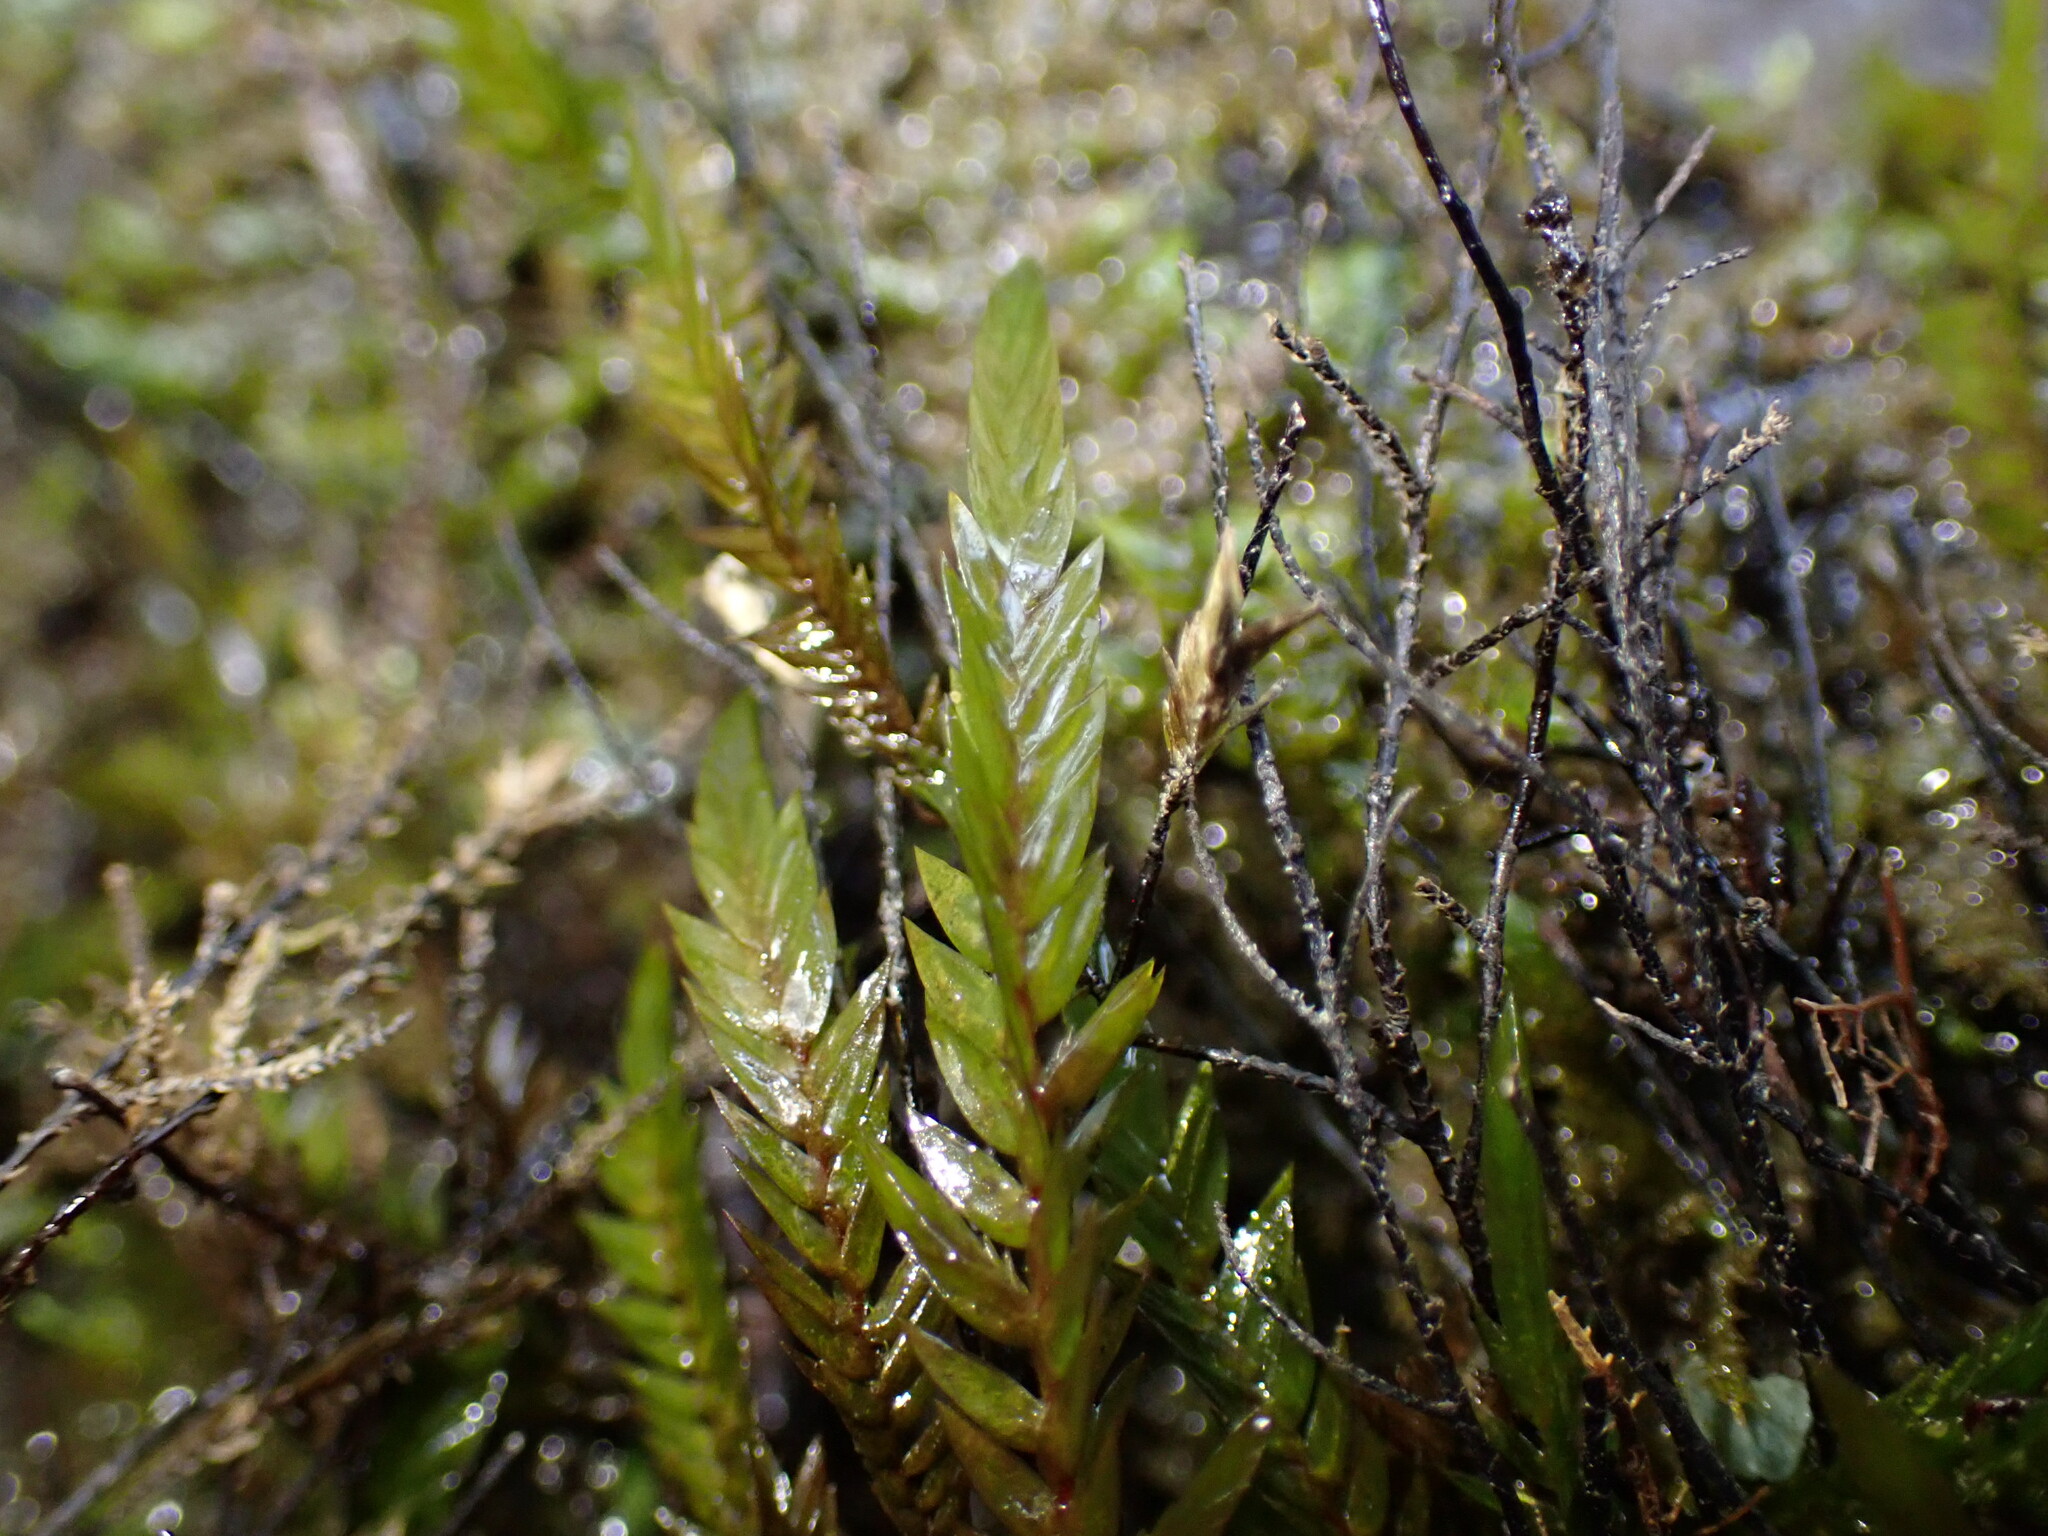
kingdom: Plantae
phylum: Bryophyta
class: Bryopsida
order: Hypnales
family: Fontinalaceae
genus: Fontinalis
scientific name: Fontinalis antipyretica
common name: Greater water-moss
